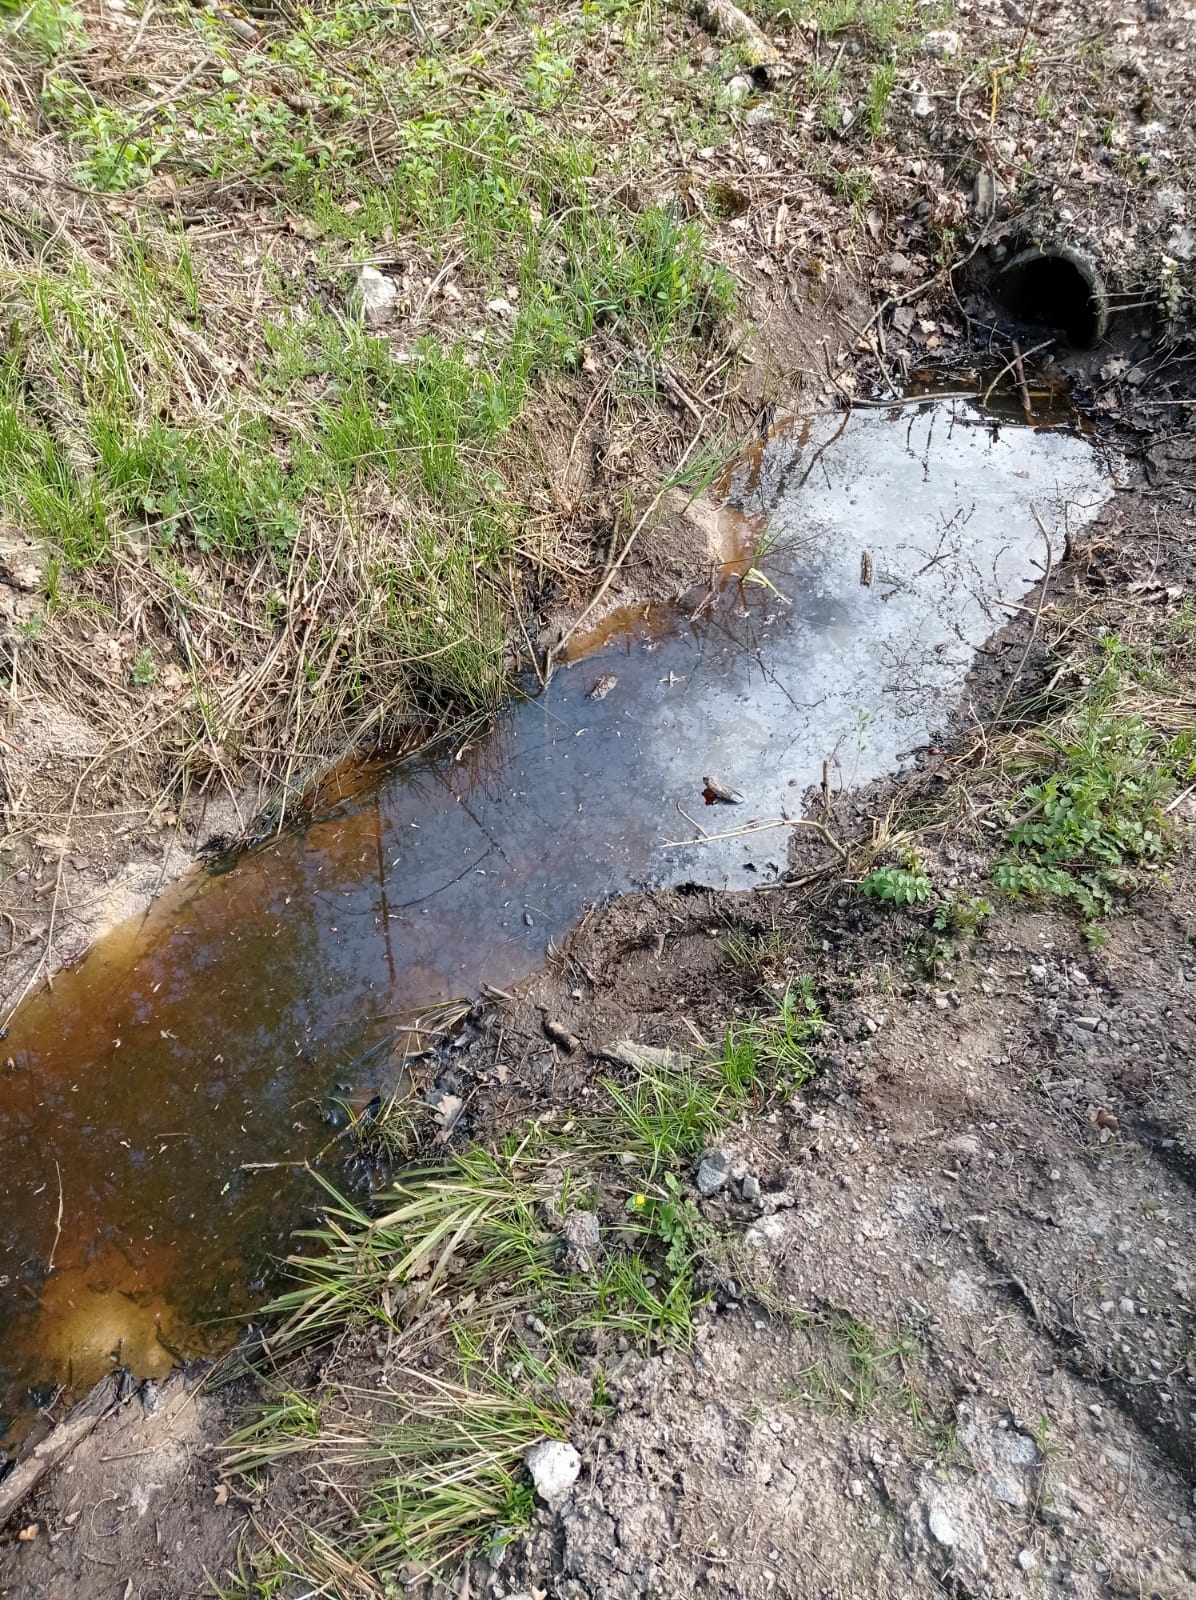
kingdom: Animalia
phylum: Chordata
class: Amphibia
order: Anura
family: Bombinatoridae
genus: Bombina
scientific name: Bombina variegata
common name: Yellow-bellied toad
